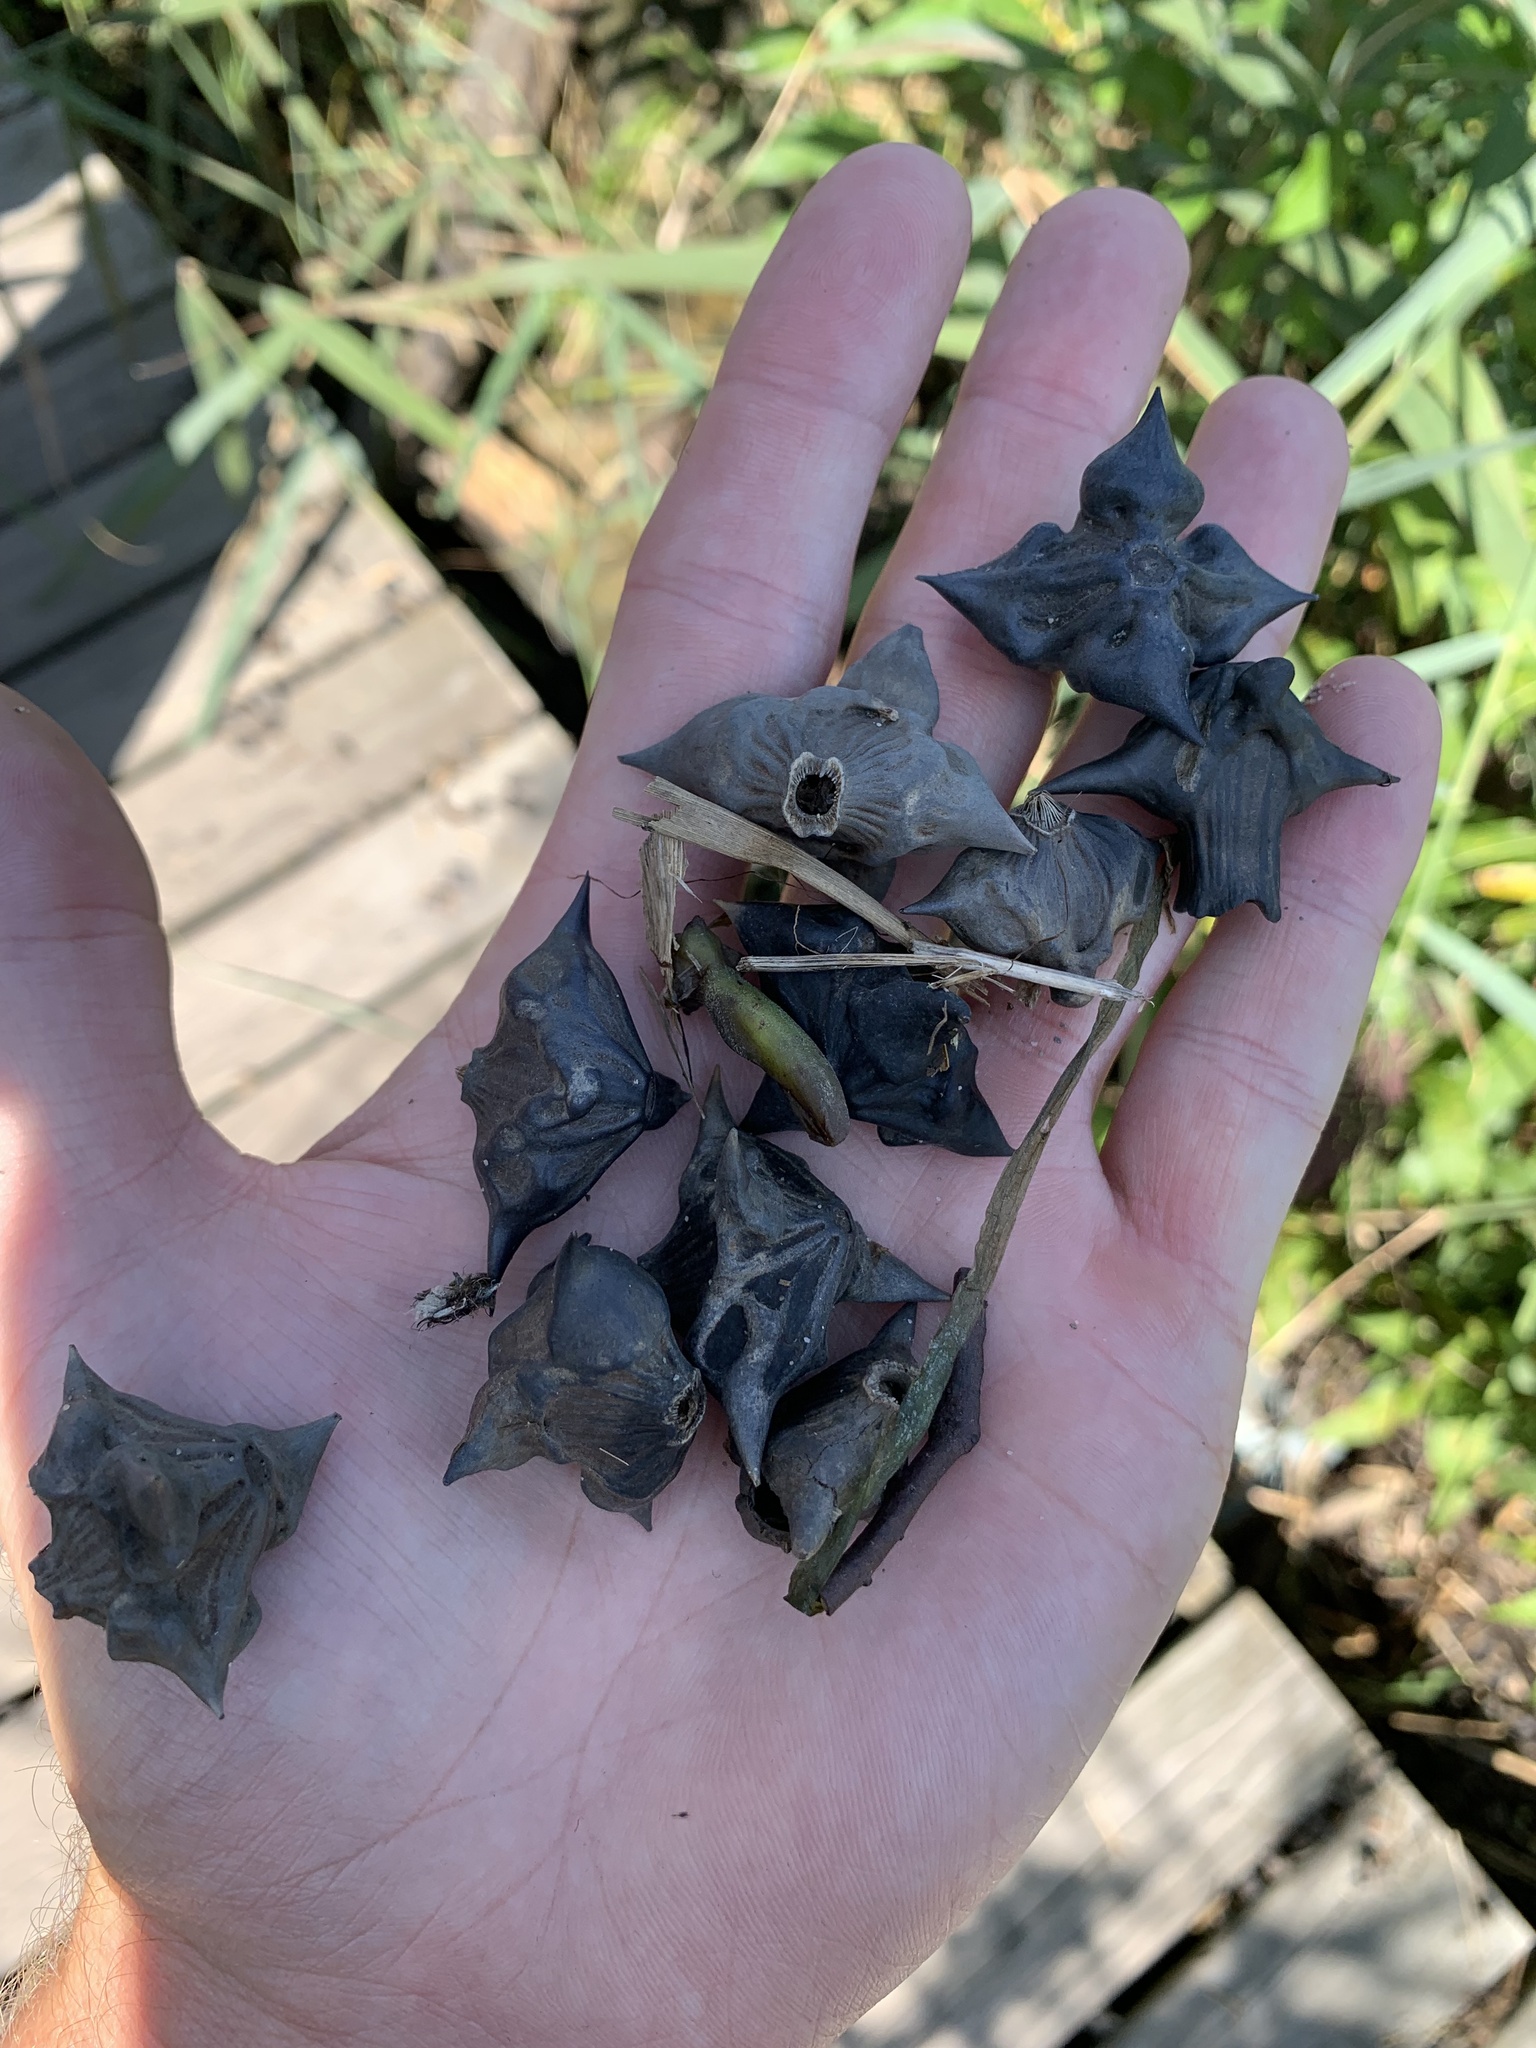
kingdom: Plantae
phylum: Tracheophyta
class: Magnoliopsida
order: Myrtales
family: Lythraceae
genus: Trapa
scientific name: Trapa natans
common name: Water chestnut
